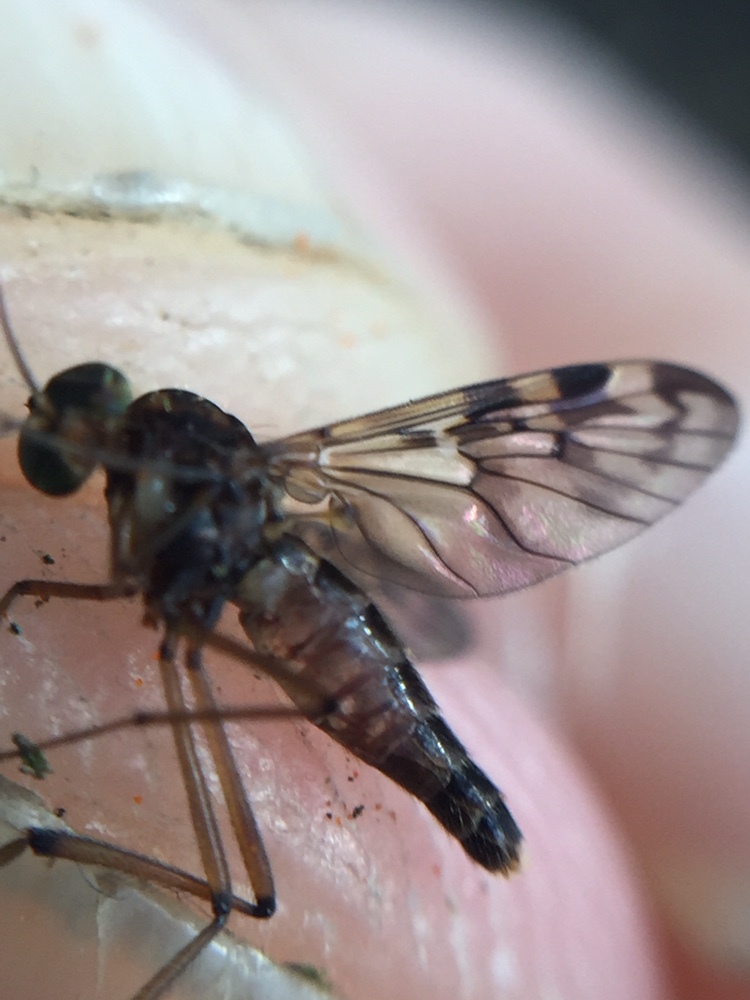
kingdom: Animalia
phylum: Arthropoda
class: Insecta
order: Diptera
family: Anisopodidae
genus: Sylvicola
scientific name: Sylvicola dubius
